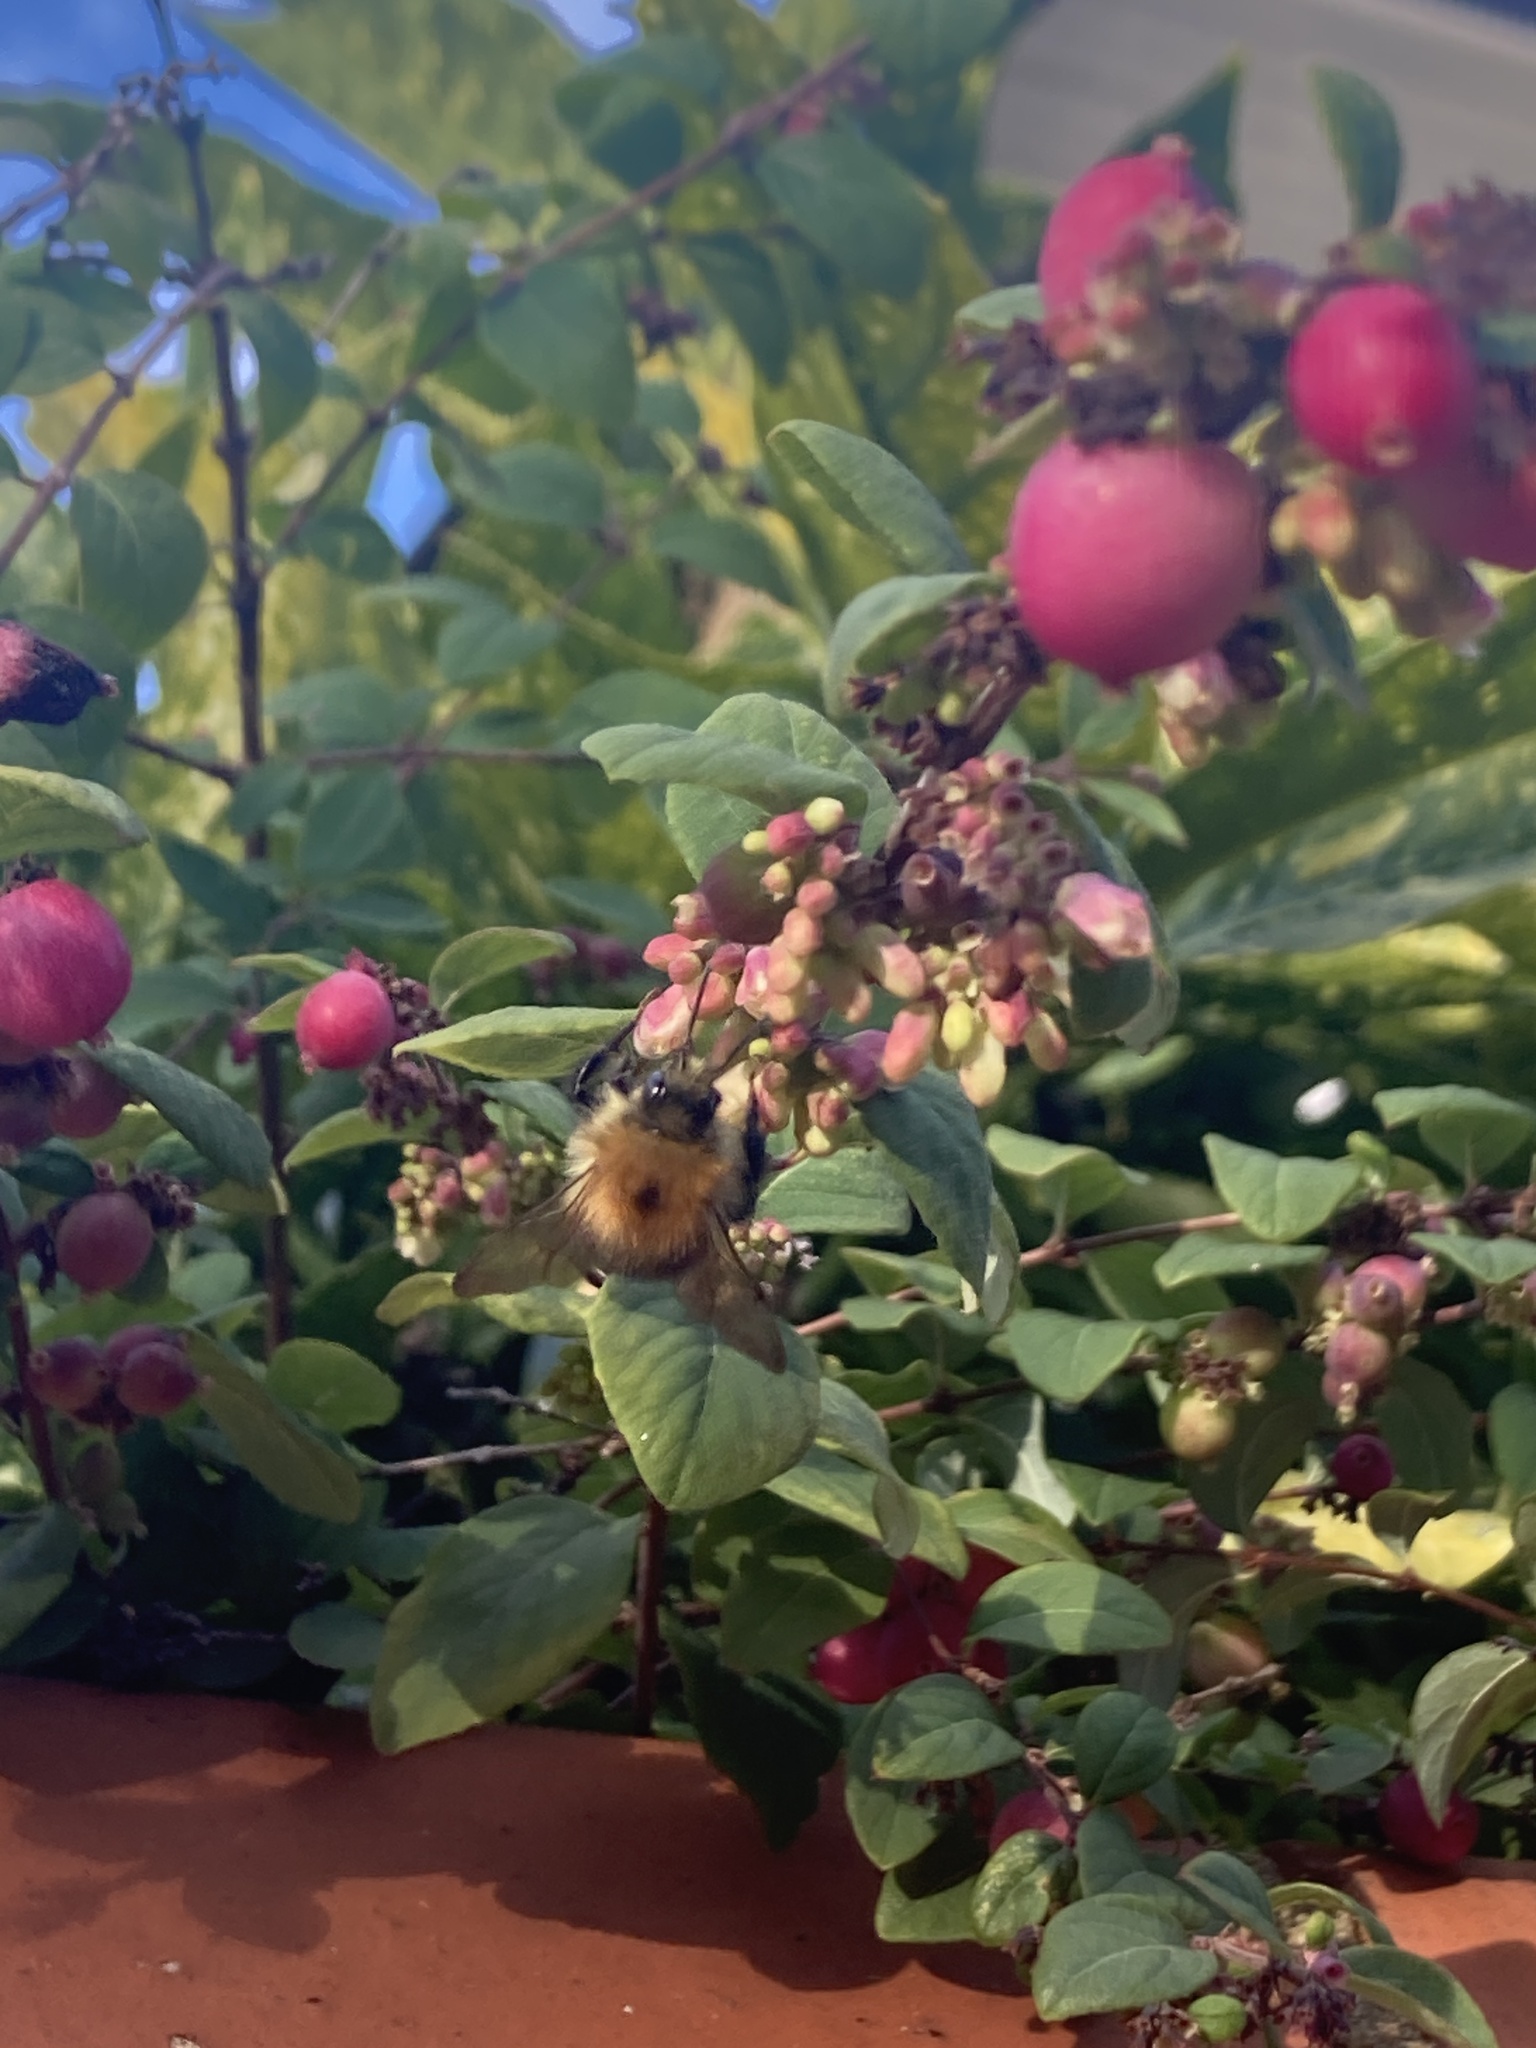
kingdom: Animalia
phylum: Arthropoda
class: Insecta
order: Hymenoptera
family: Apidae
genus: Bombus
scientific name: Bombus pascuorum
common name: Common carder bee
